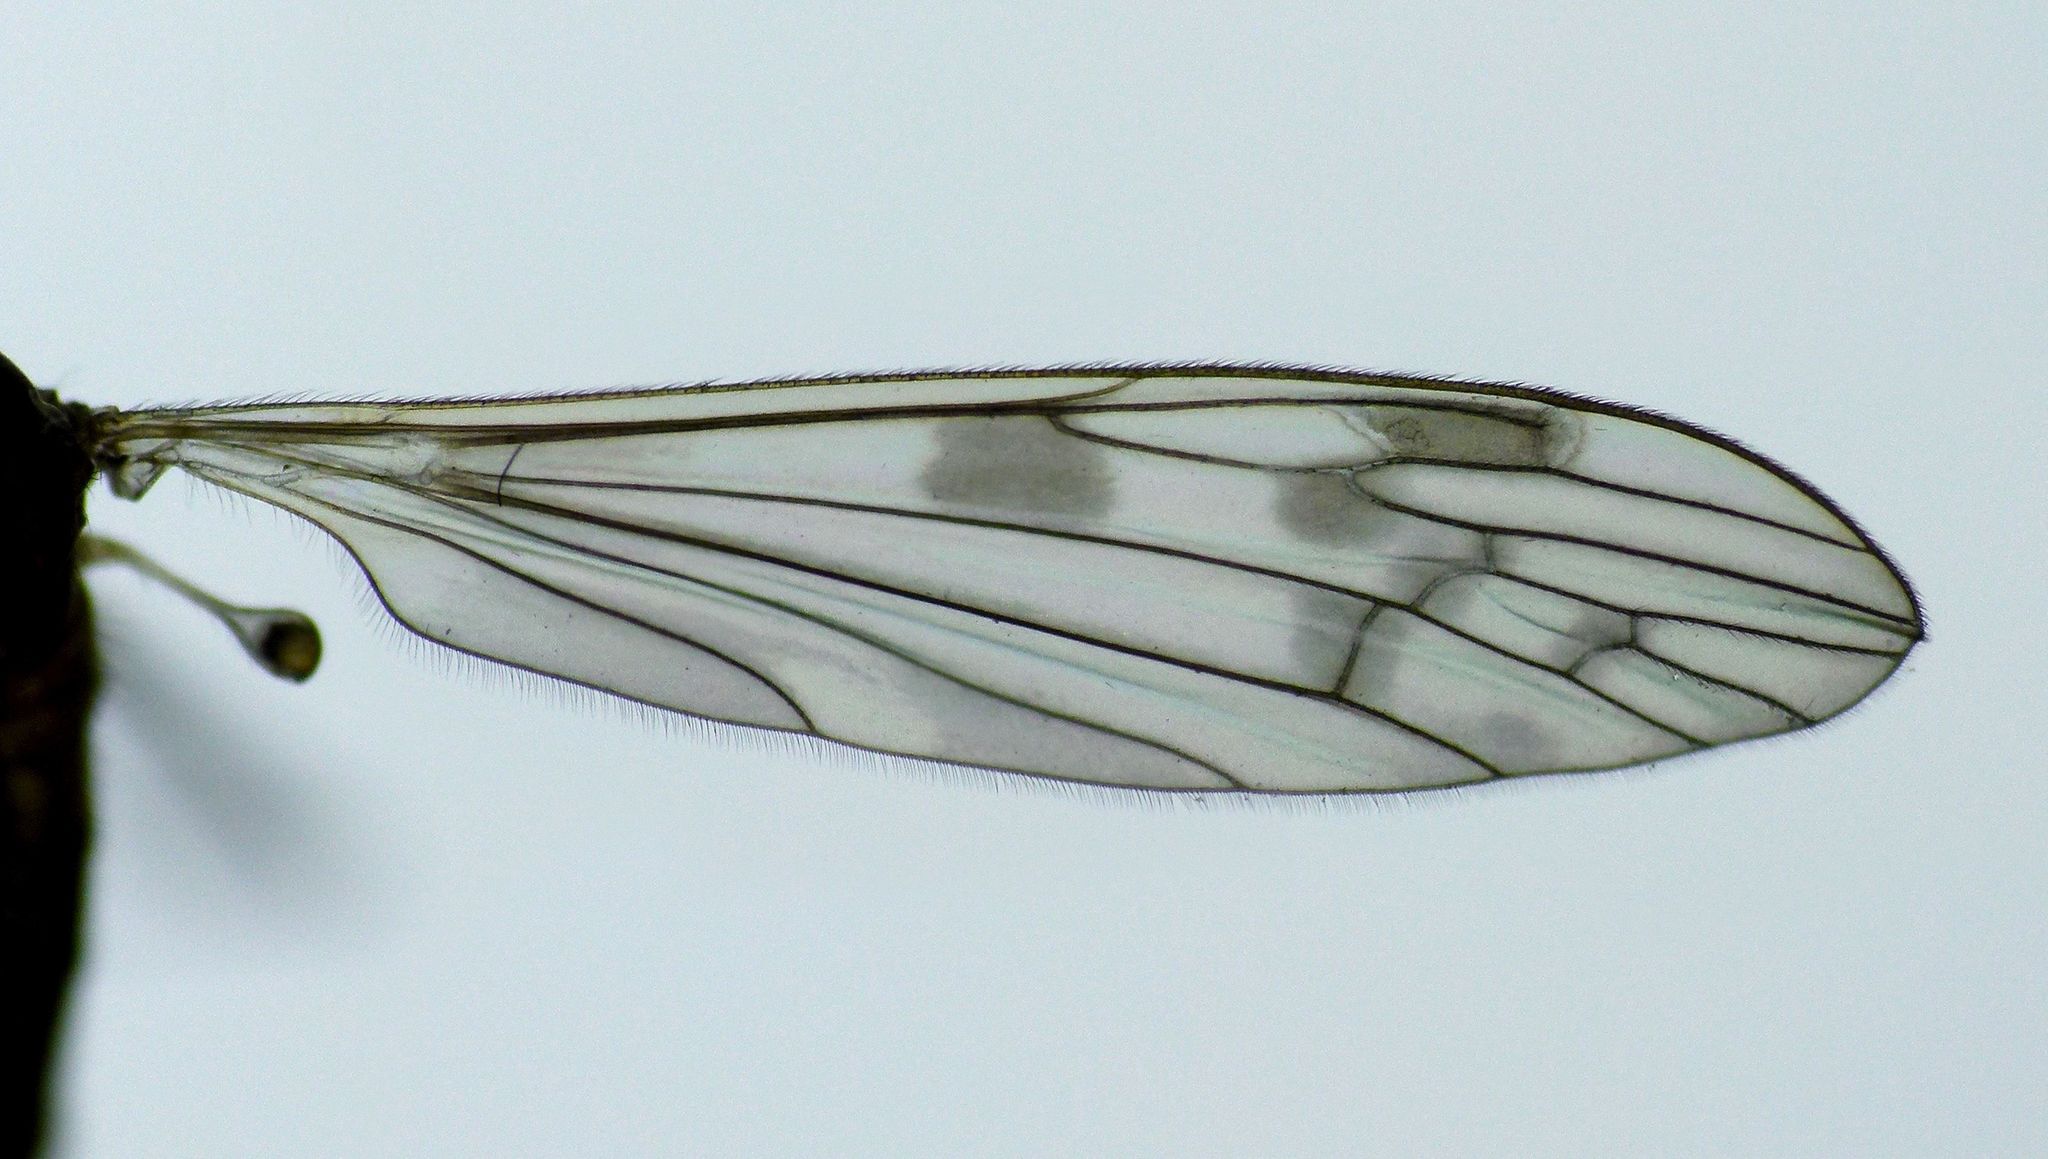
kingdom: Animalia
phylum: Arthropoda
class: Insecta
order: Diptera
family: Limoniidae
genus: Libnotes
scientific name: Libnotes falcata
